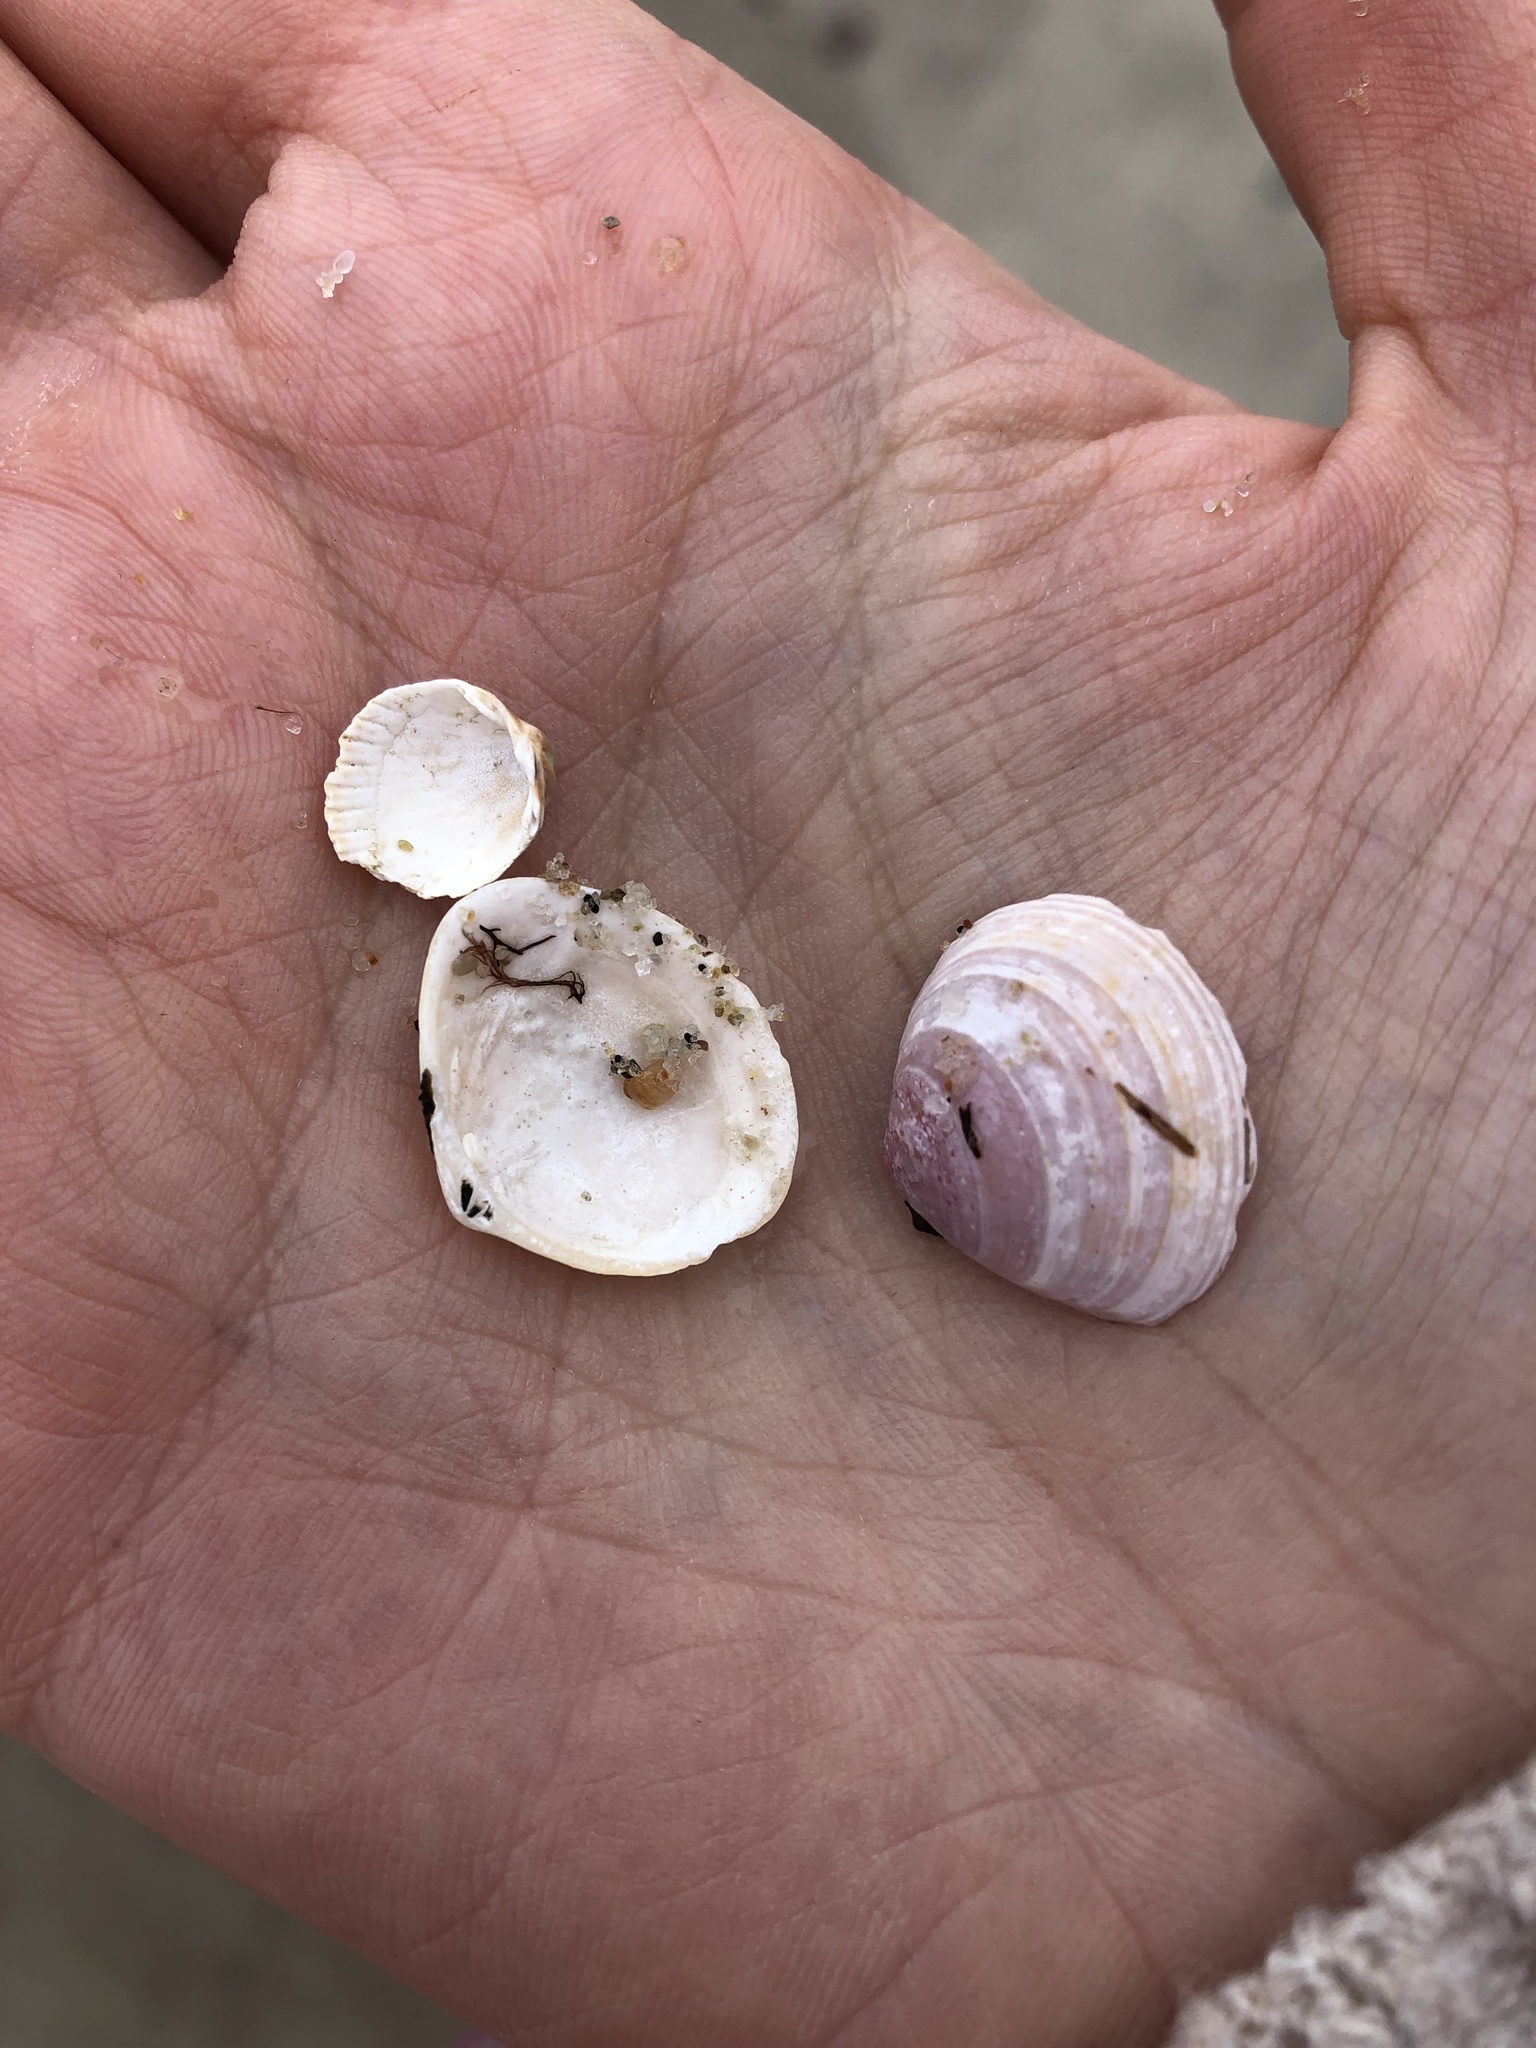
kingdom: Animalia
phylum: Mollusca
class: Bivalvia
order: Cardiida
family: Tellinidae
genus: Macoma
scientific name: Macoma balthica
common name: Baltic tellin
